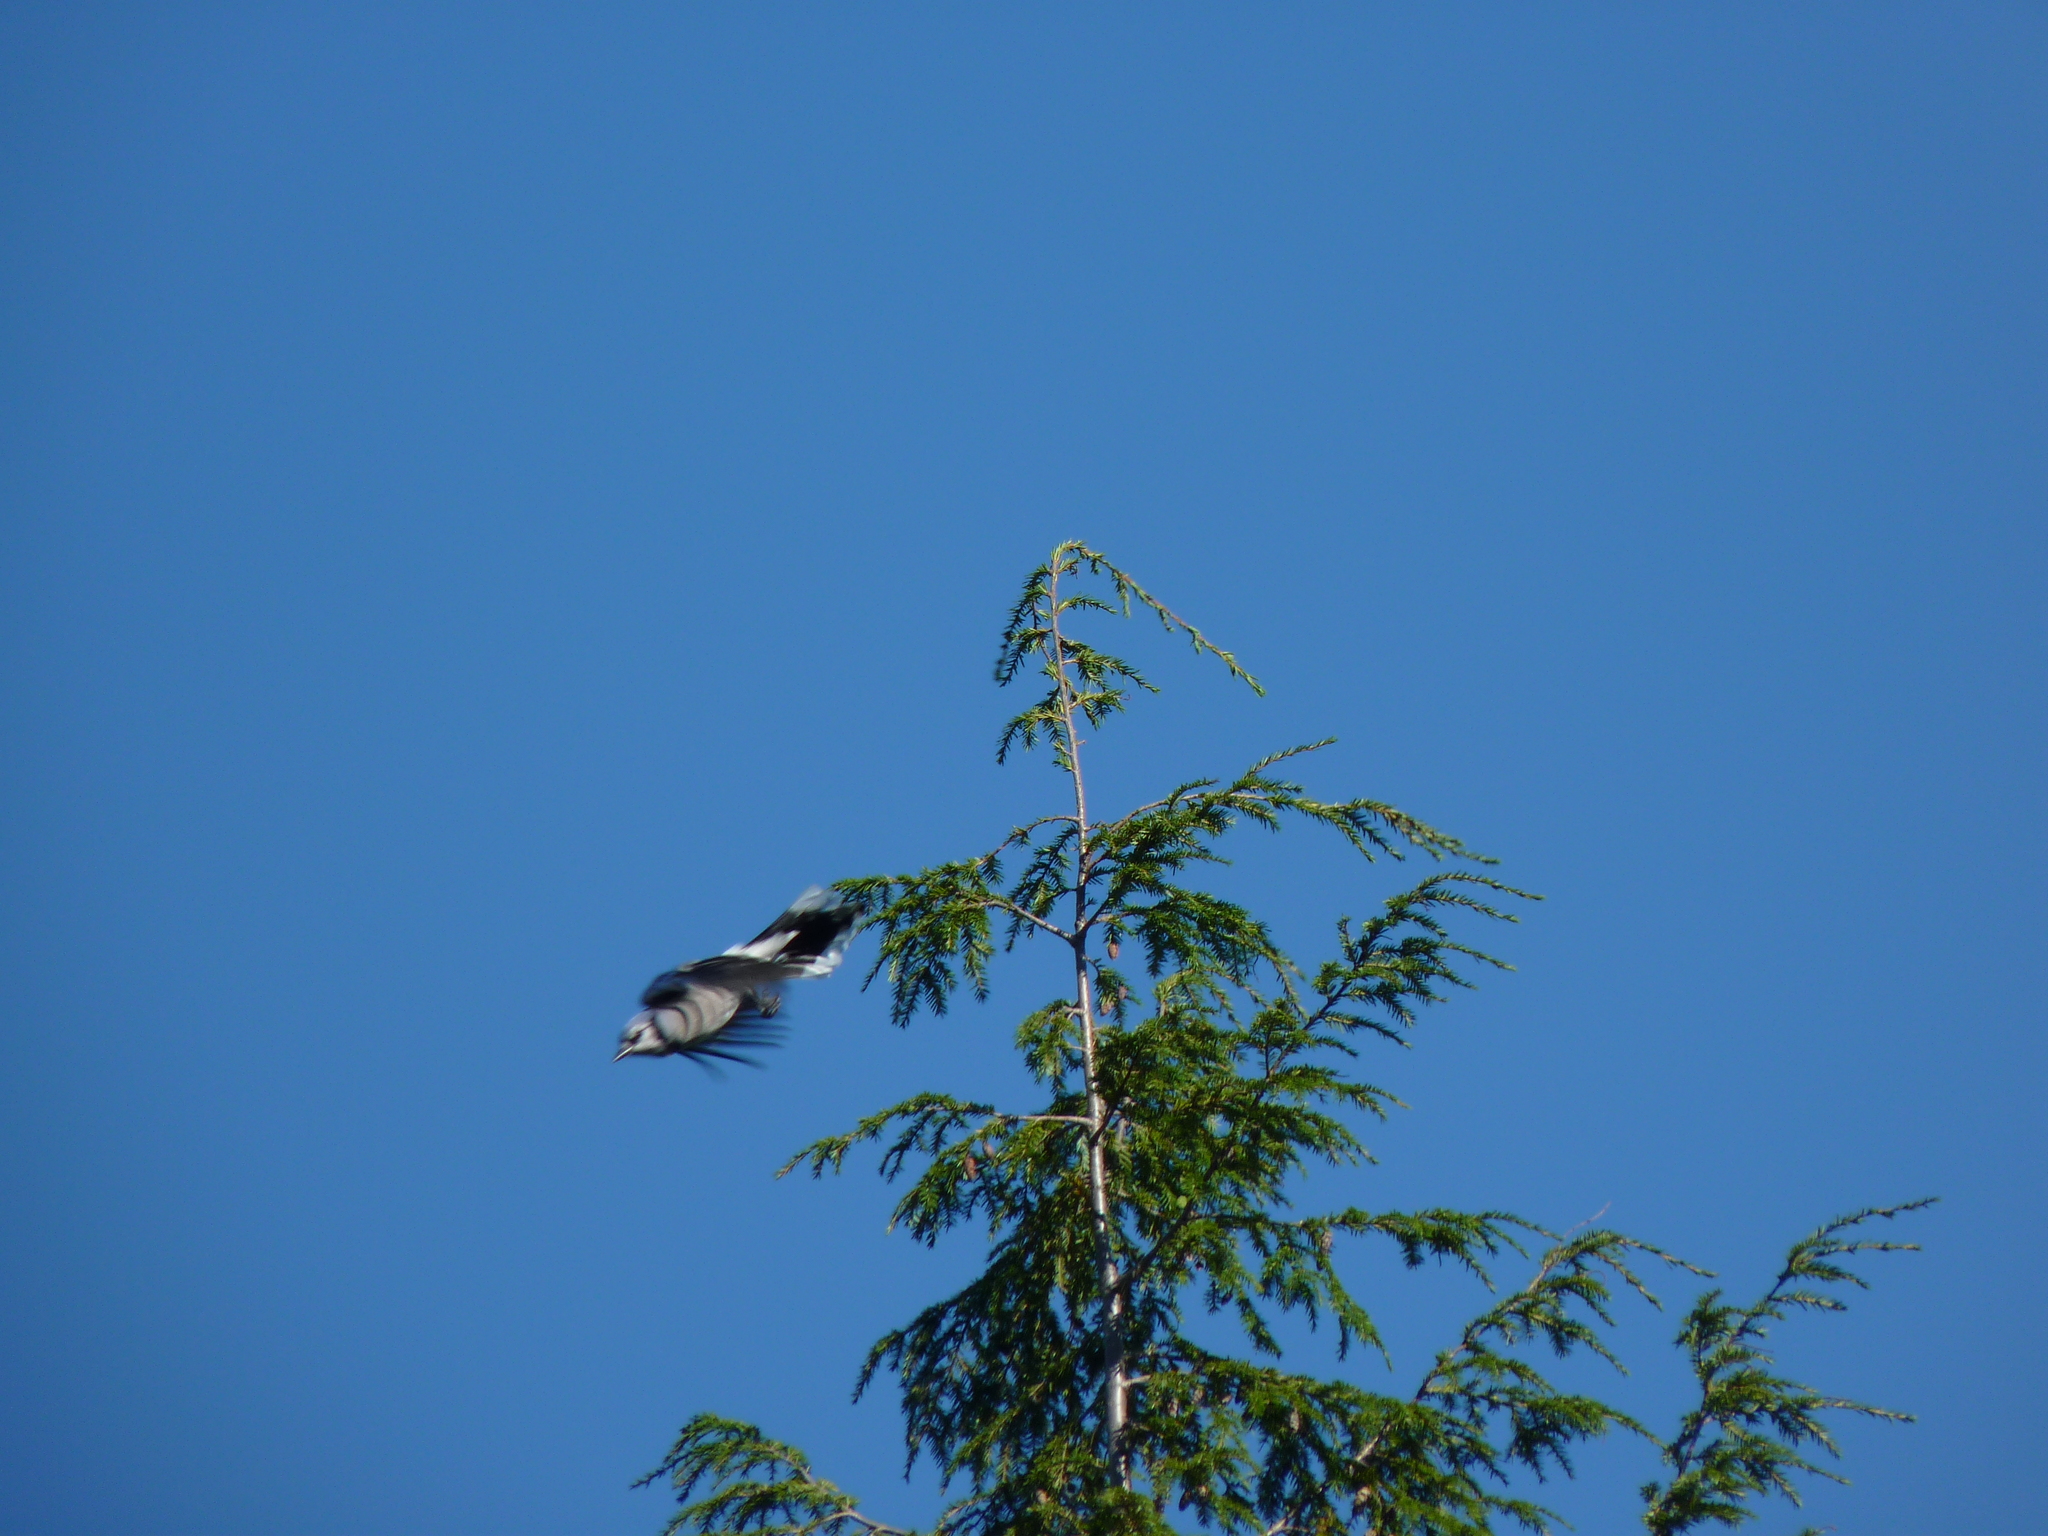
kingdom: Animalia
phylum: Chordata
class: Aves
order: Passeriformes
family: Corvidae
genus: Cyanocitta
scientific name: Cyanocitta cristata
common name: Blue jay
